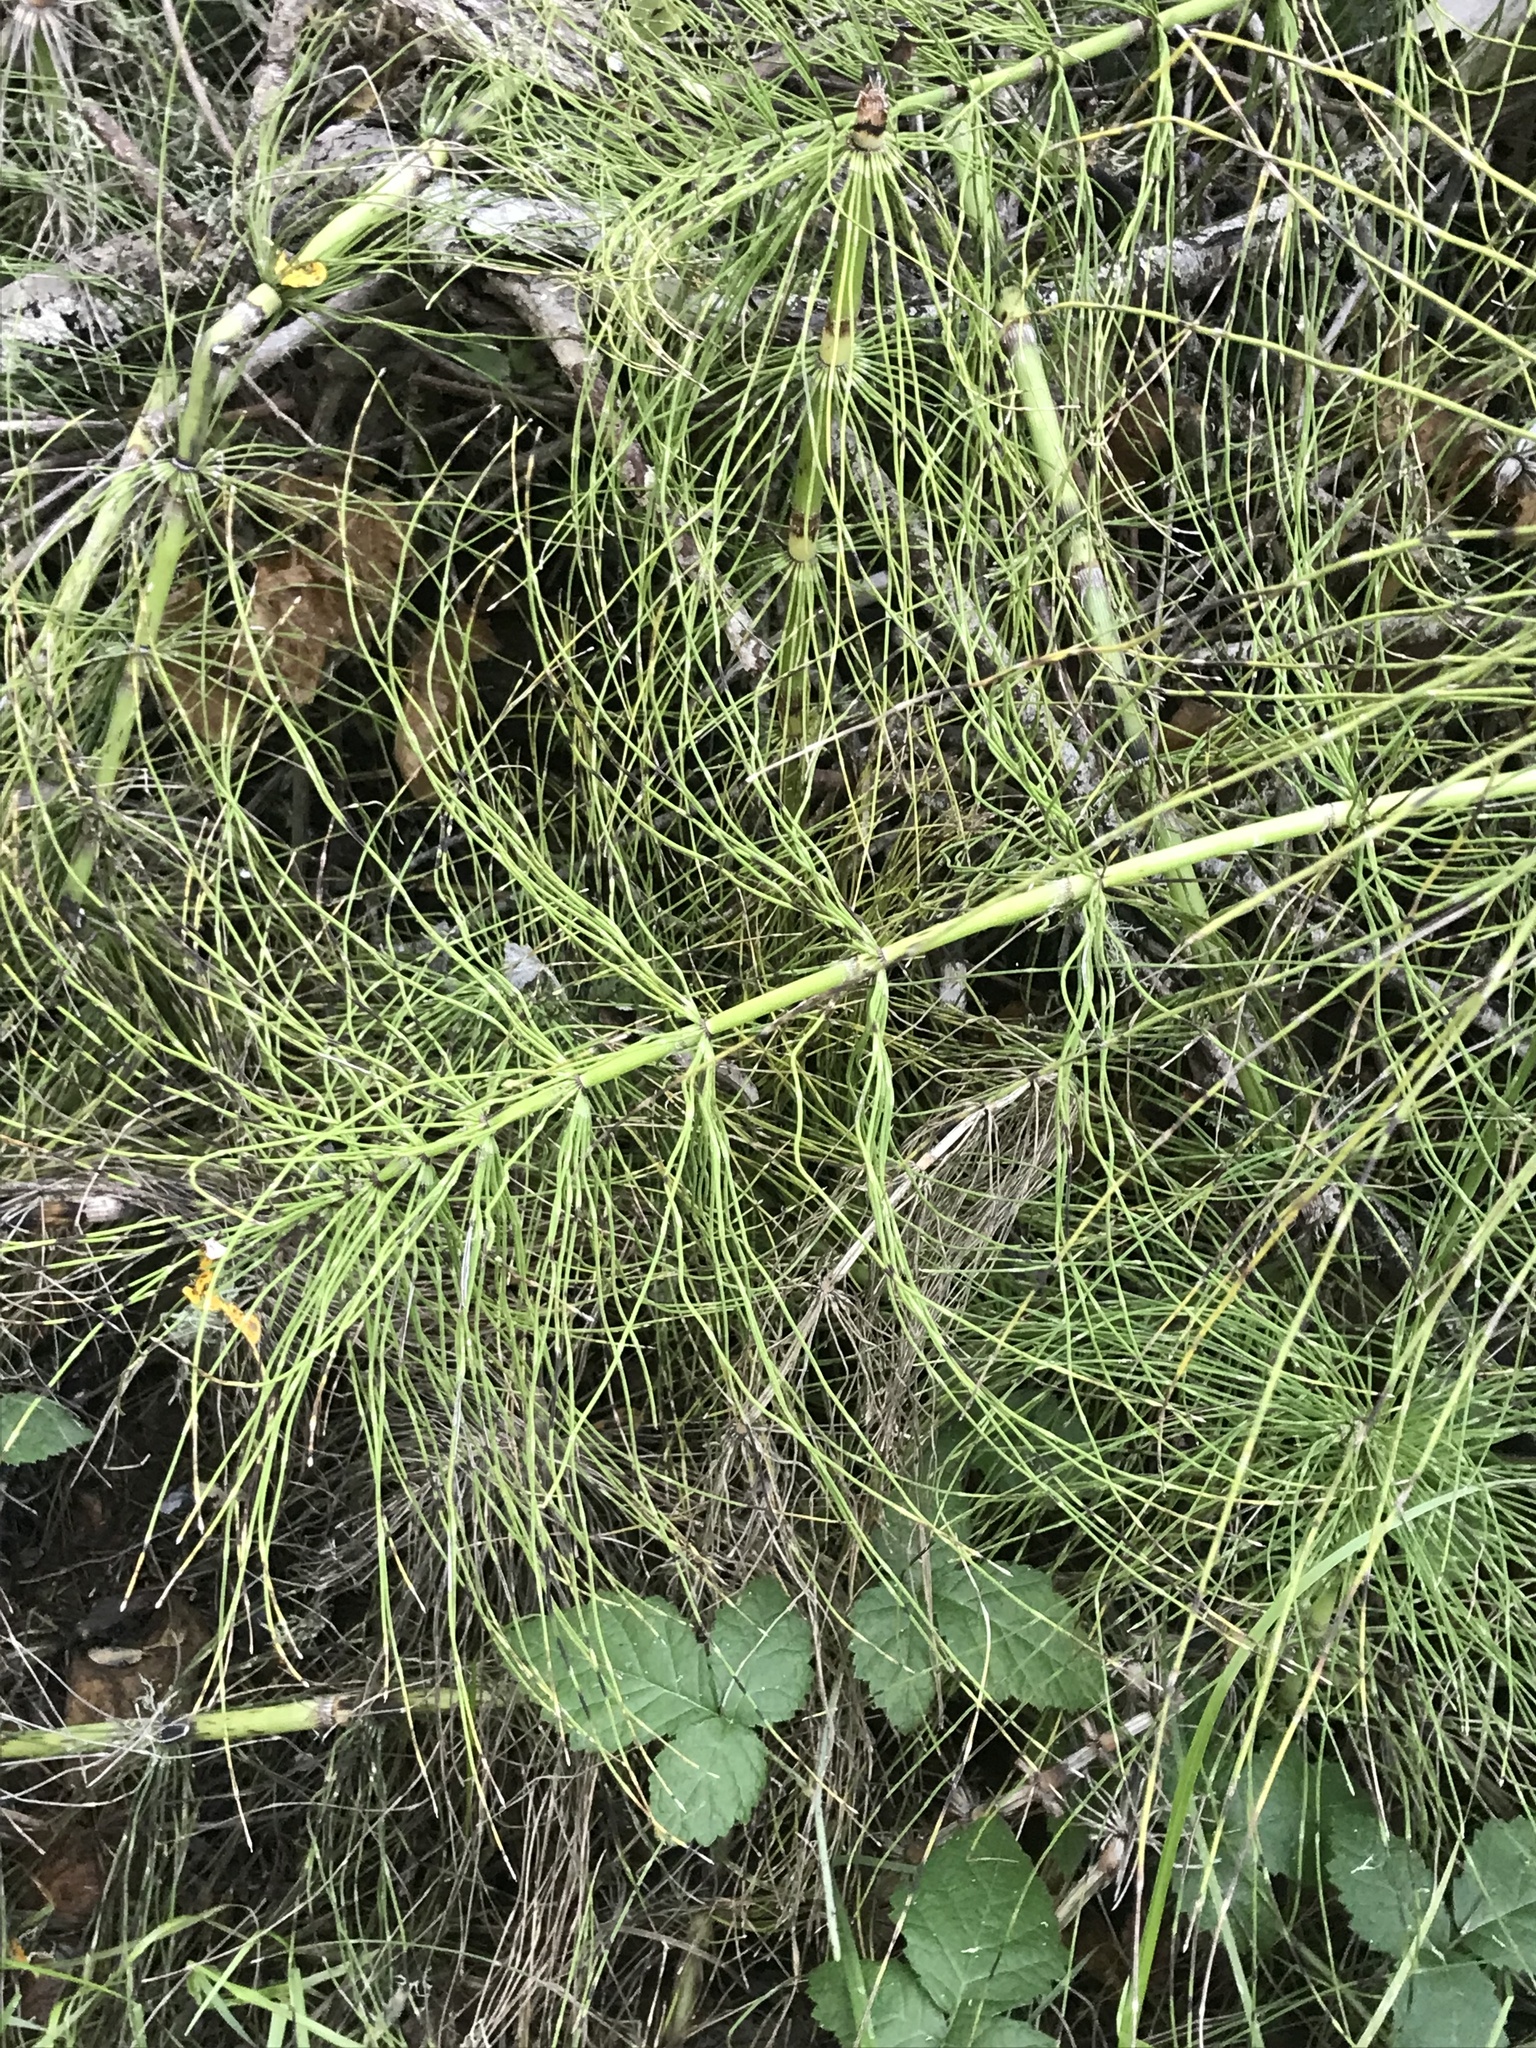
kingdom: Plantae
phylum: Tracheophyta
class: Polypodiopsida
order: Equisetales
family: Equisetaceae
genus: Equisetum
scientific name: Equisetum braunii
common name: Braun's horsetail
